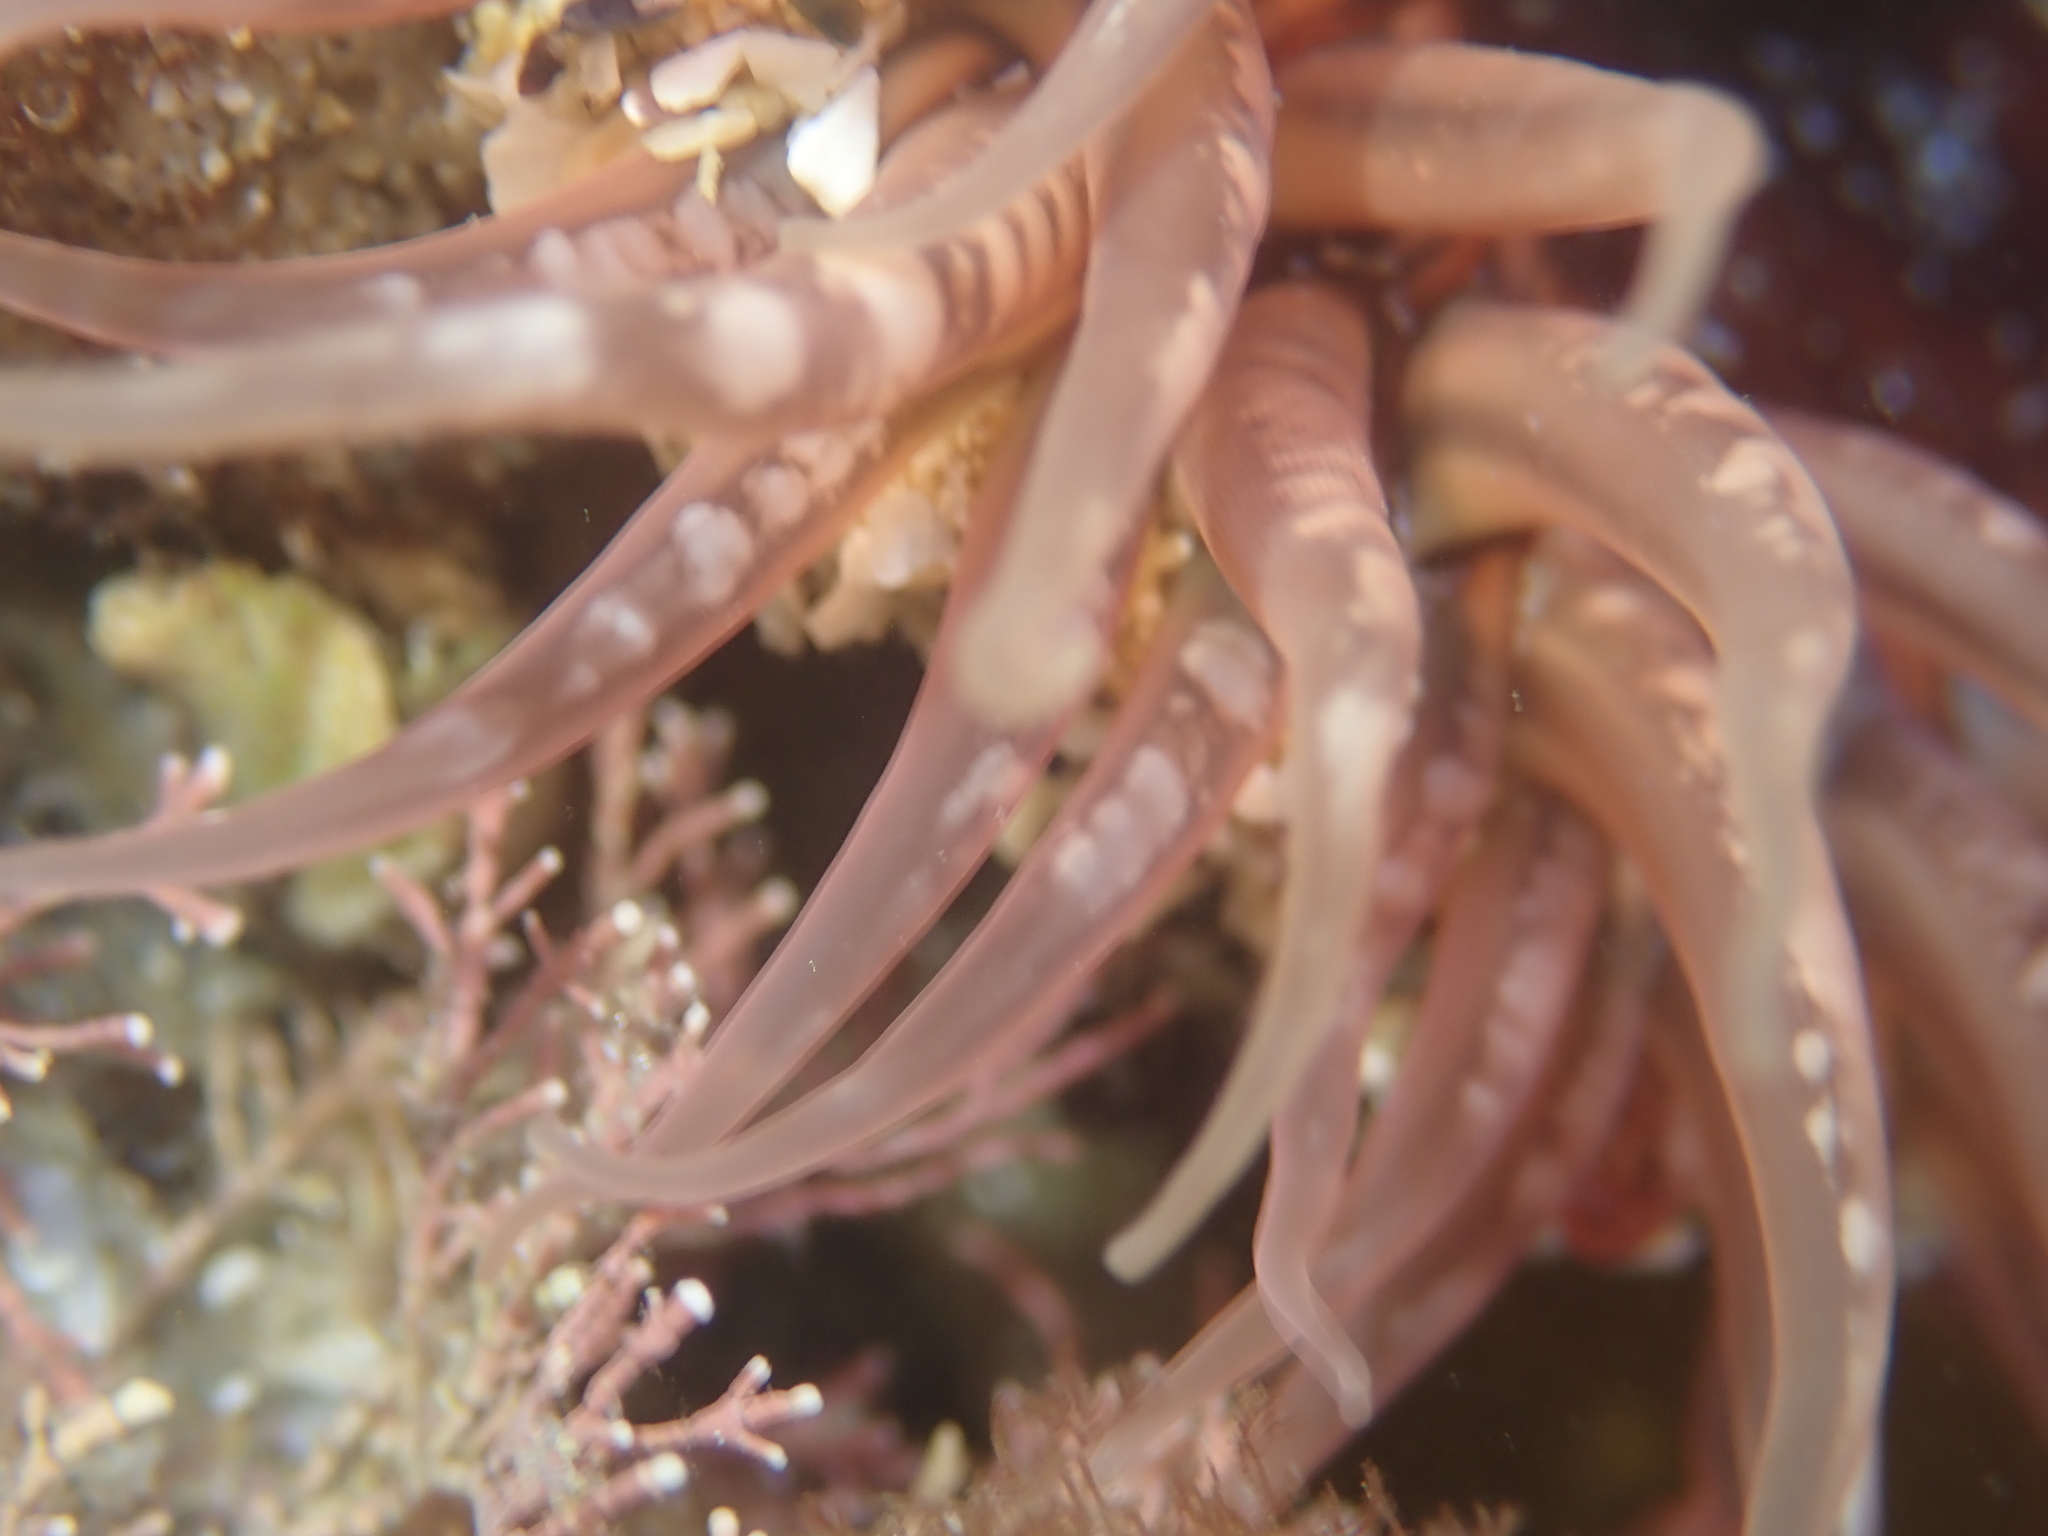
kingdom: Animalia
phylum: Cnidaria
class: Anthozoa
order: Actiniaria
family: Actiniidae
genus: Oulactis
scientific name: Oulactis muscosa
